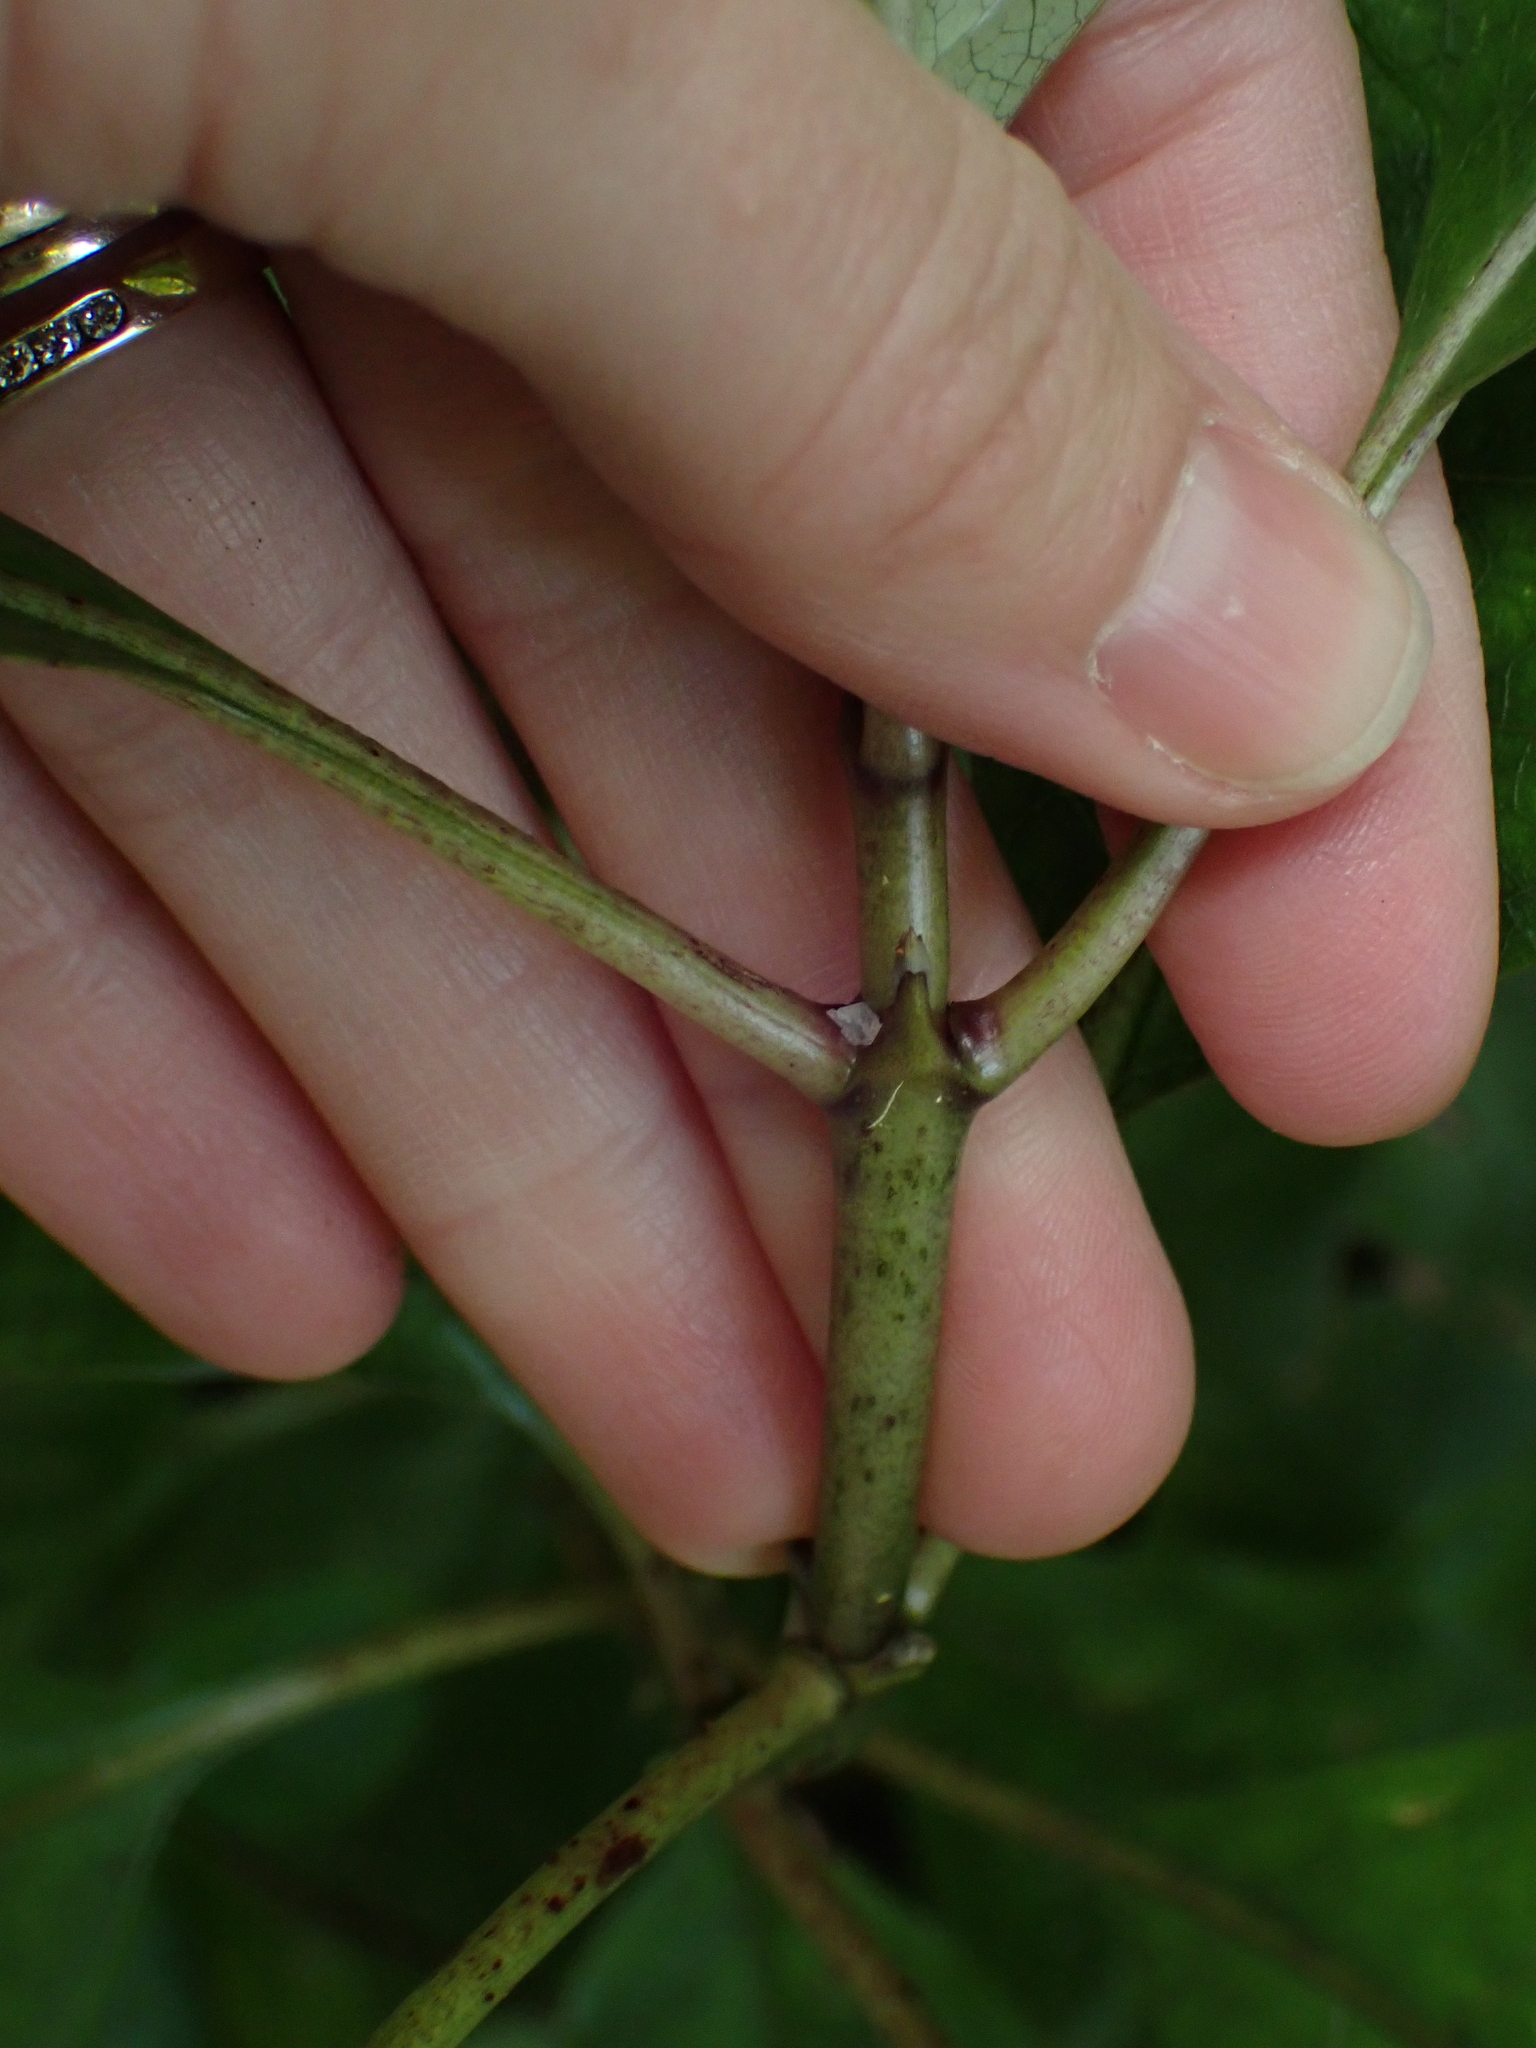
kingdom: Plantae
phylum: Tracheophyta
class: Magnoliopsida
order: Gentianales
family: Rubiaceae
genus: Coprosma
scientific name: Coprosma autumnalis
